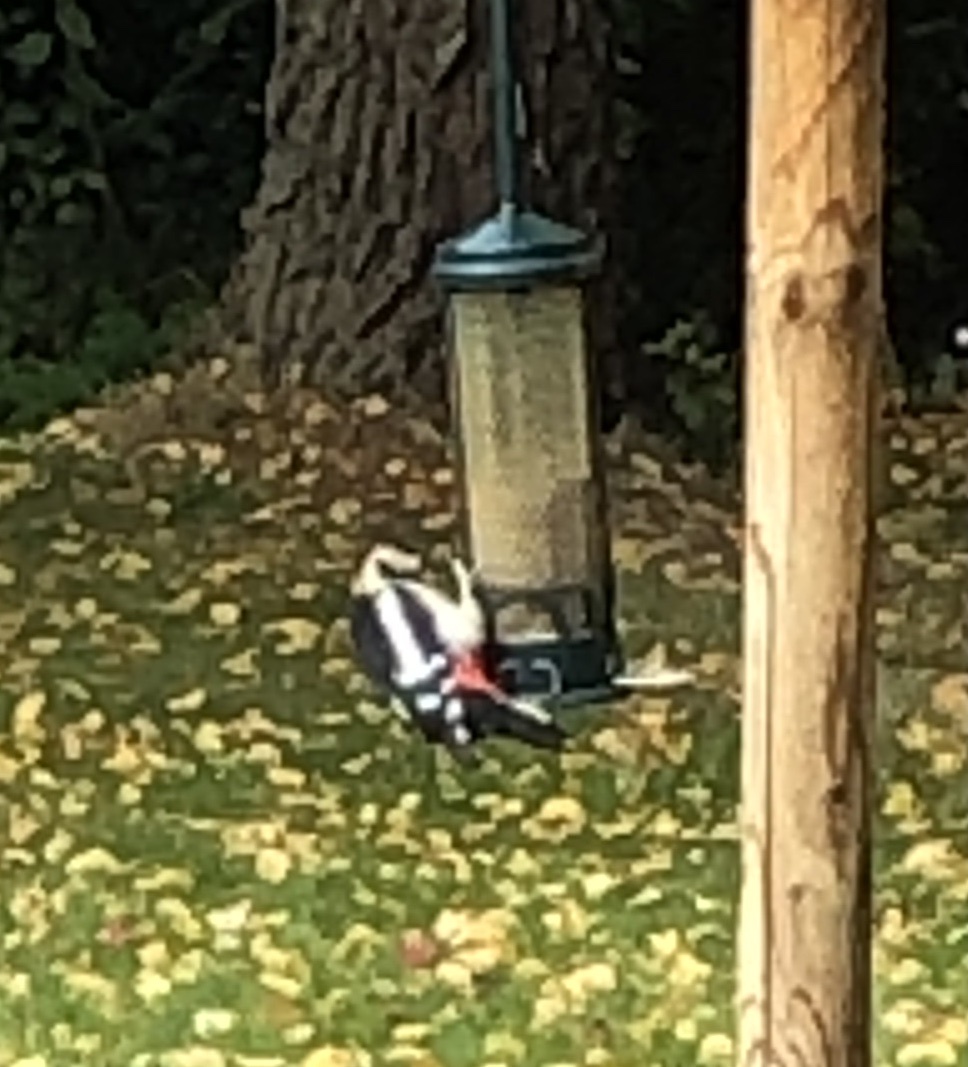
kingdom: Animalia
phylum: Chordata
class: Aves
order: Piciformes
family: Picidae
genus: Dendrocopos
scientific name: Dendrocopos major
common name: Great spotted woodpecker
